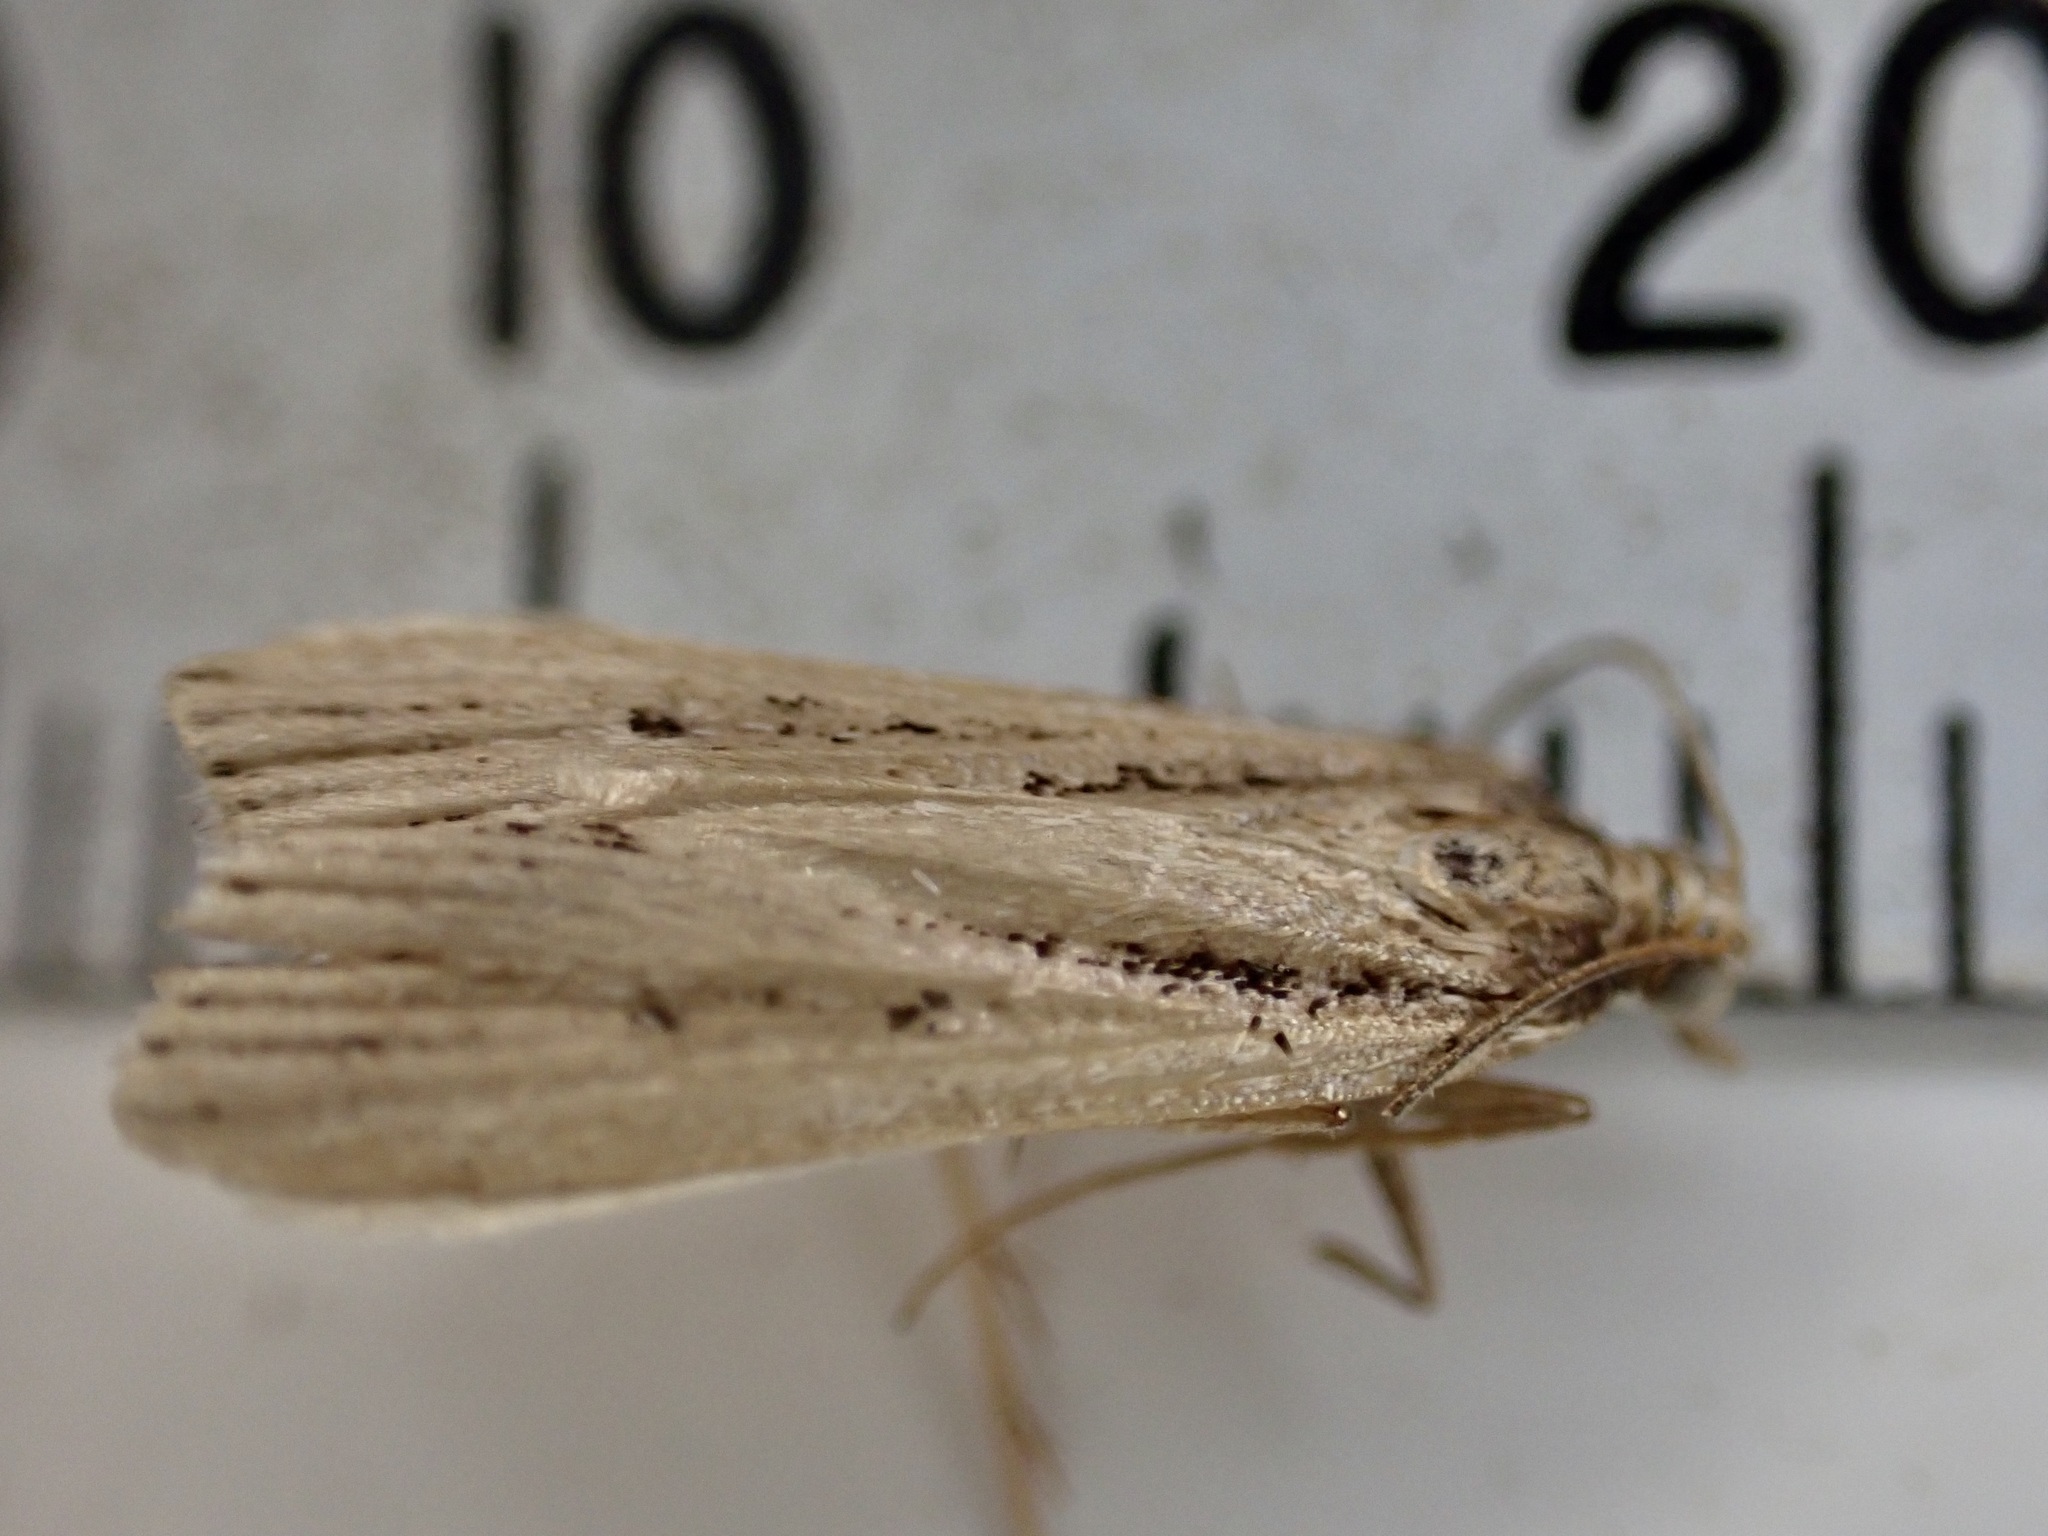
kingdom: Animalia
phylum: Arthropoda
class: Insecta
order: Lepidoptera
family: Crambidae
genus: Eudonia
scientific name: Eudonia sabulosella
